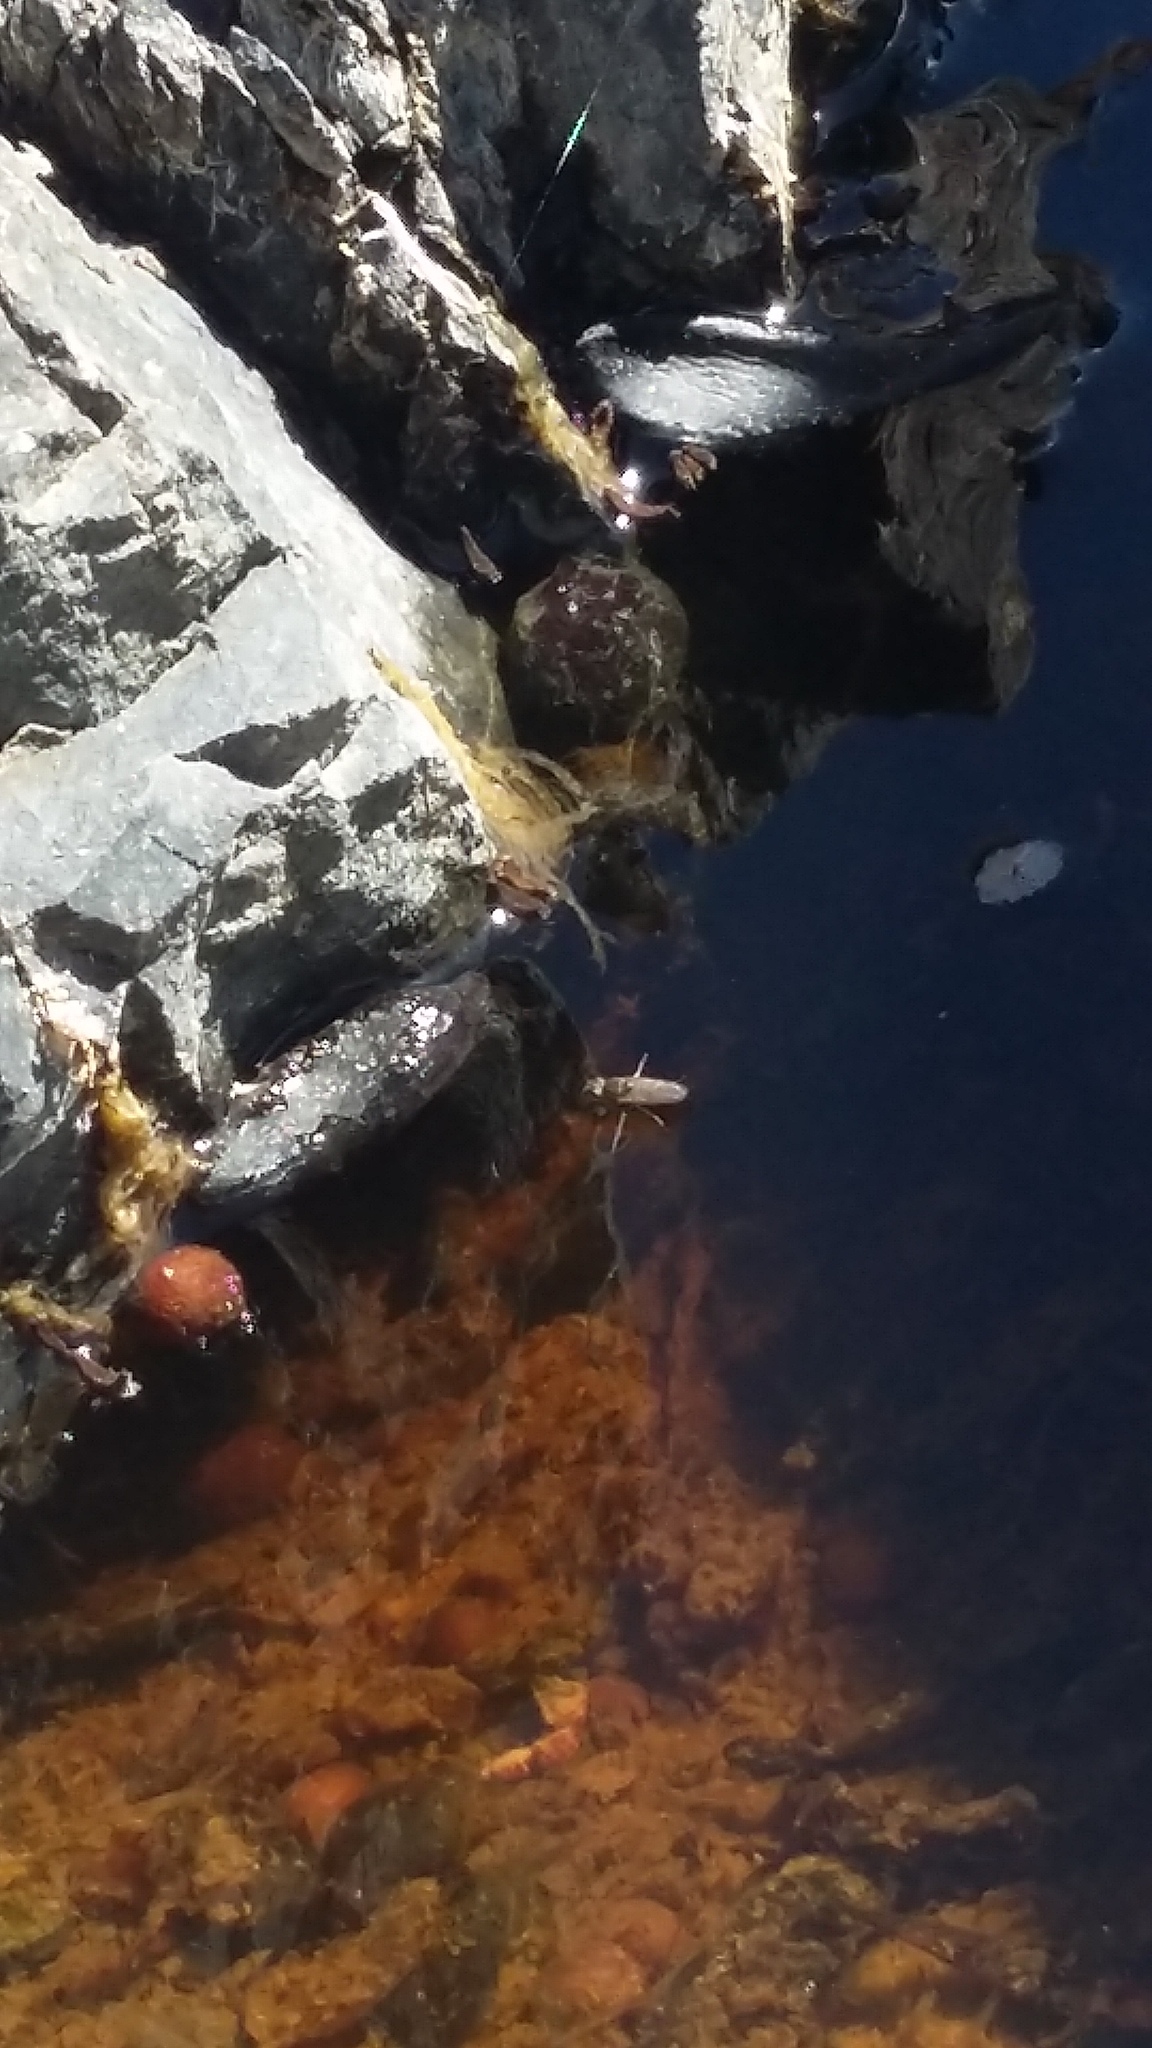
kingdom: Animalia
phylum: Arthropoda
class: Insecta
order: Diptera
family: Culicidae
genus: Opifex
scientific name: Opifex fuscus
